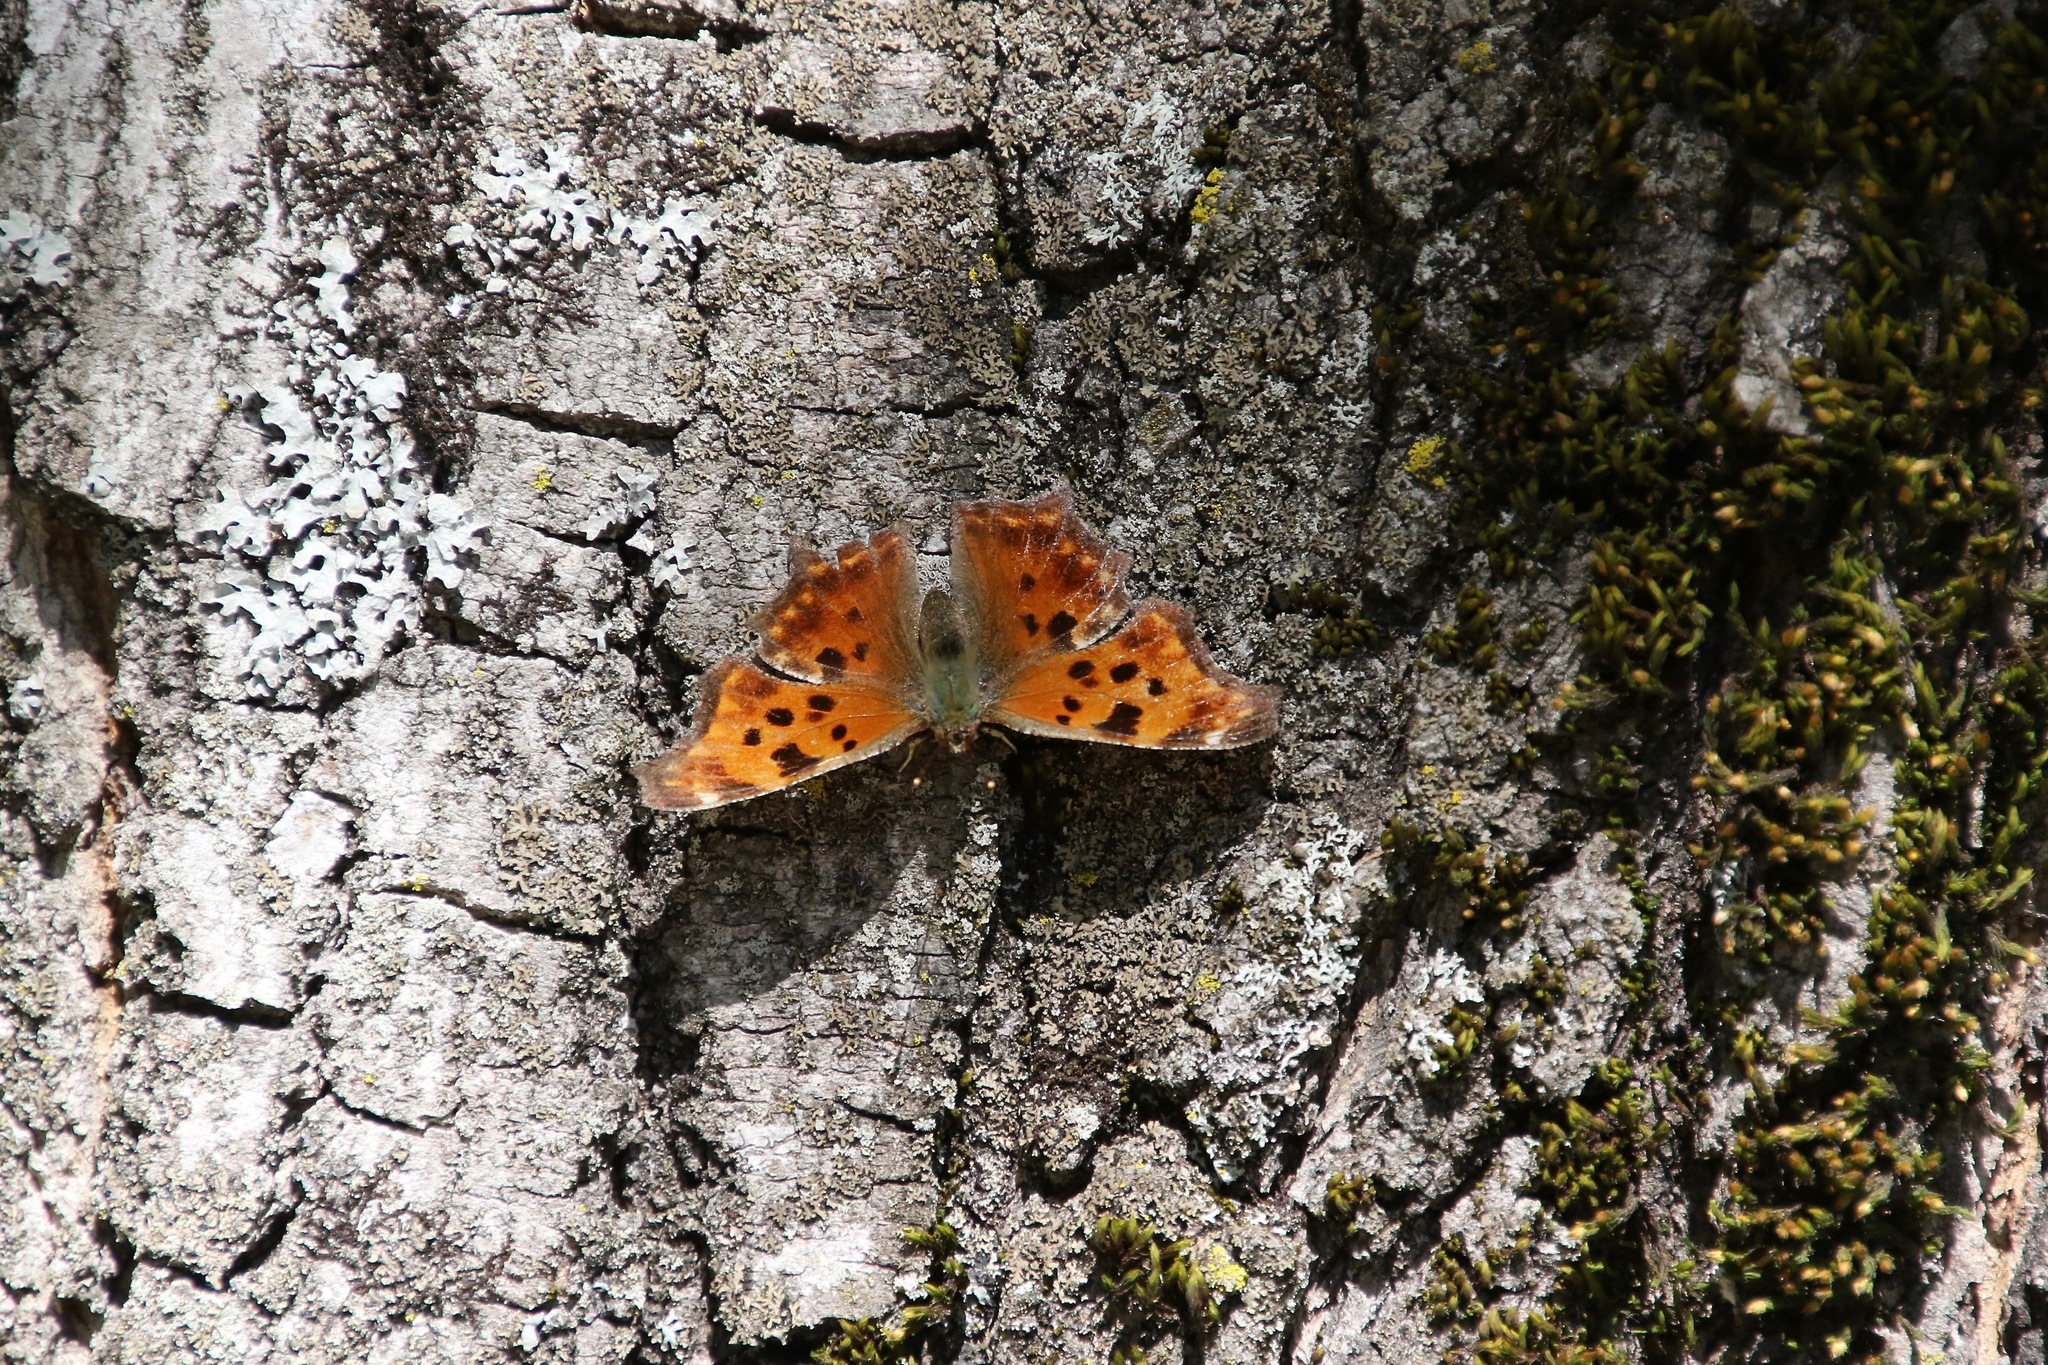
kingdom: Animalia
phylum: Arthropoda
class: Insecta
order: Lepidoptera
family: Nymphalidae
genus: Polygonia
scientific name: Polygonia comma
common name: Eastern comma
